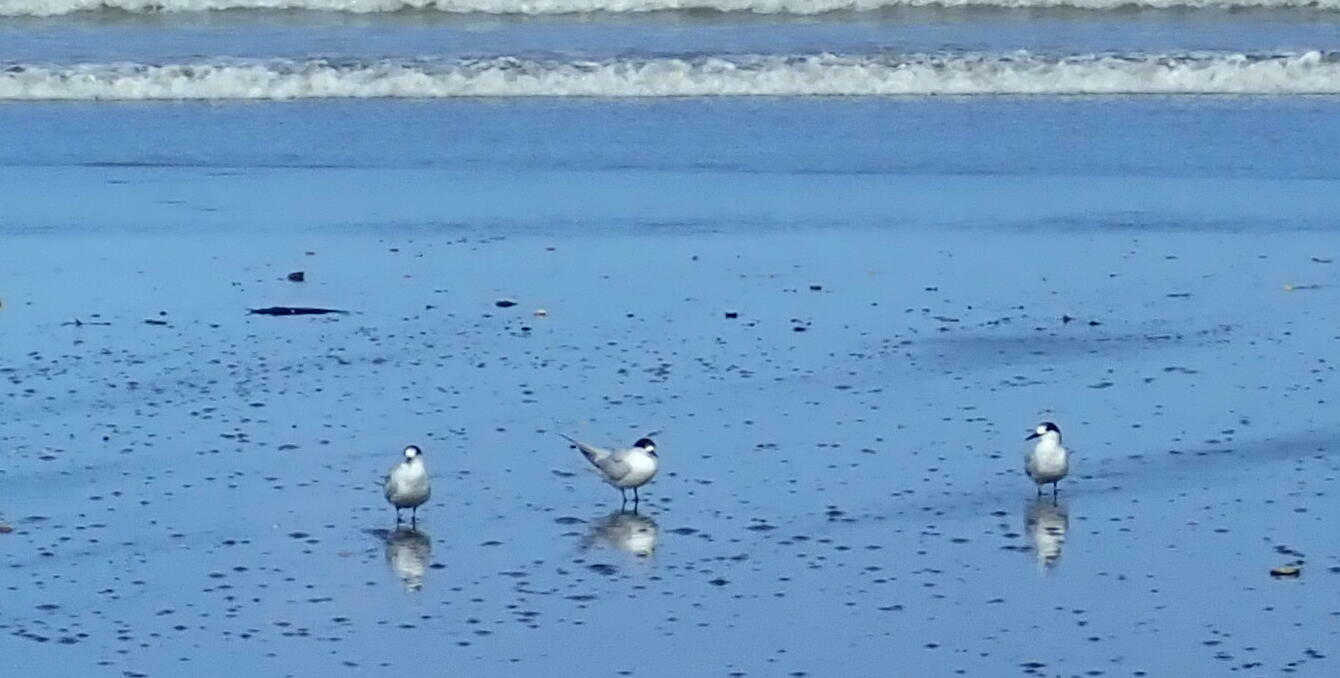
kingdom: Animalia
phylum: Chordata
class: Aves
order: Charadriiformes
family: Laridae
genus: Sterna
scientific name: Sterna striata
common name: White-fronted tern
